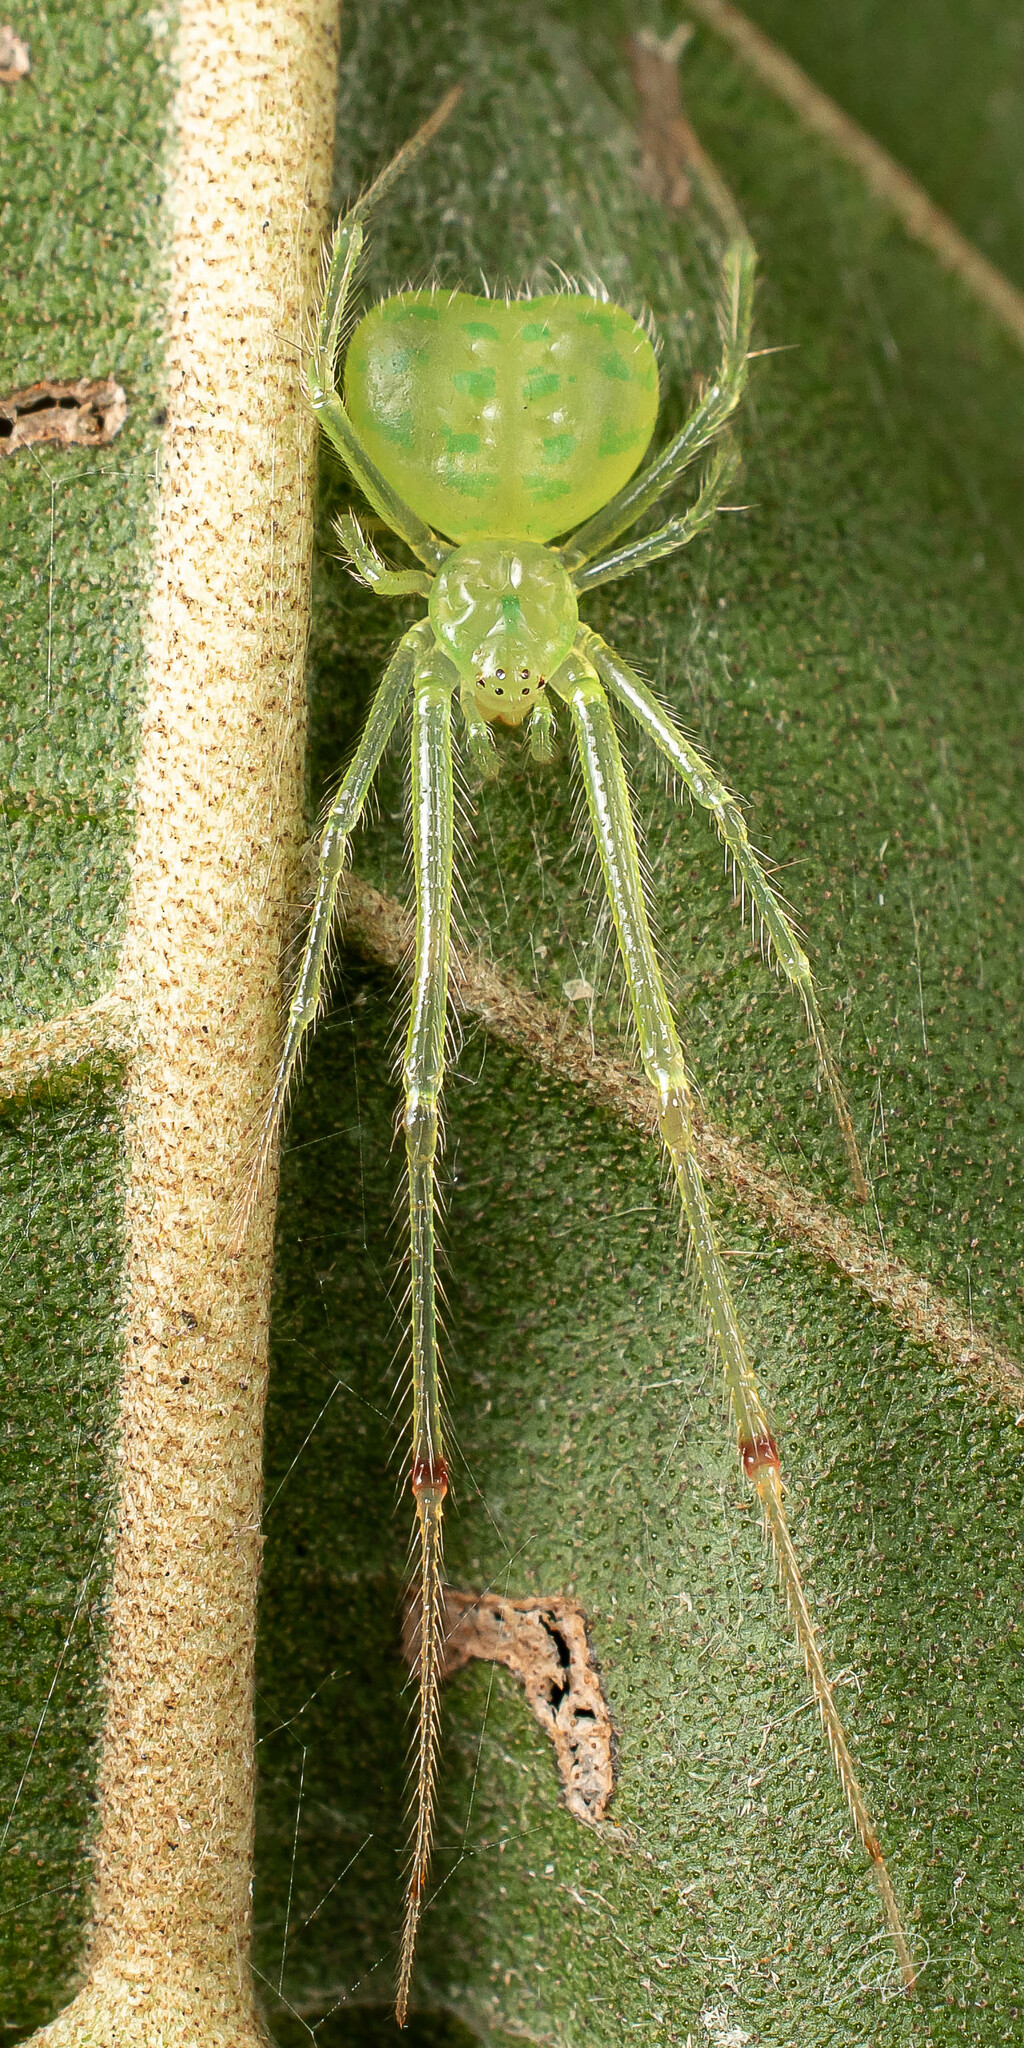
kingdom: Animalia
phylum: Arthropoda
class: Arachnida
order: Araneae
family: Theridiidae
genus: Theridion
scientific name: Theridion biezankoi
